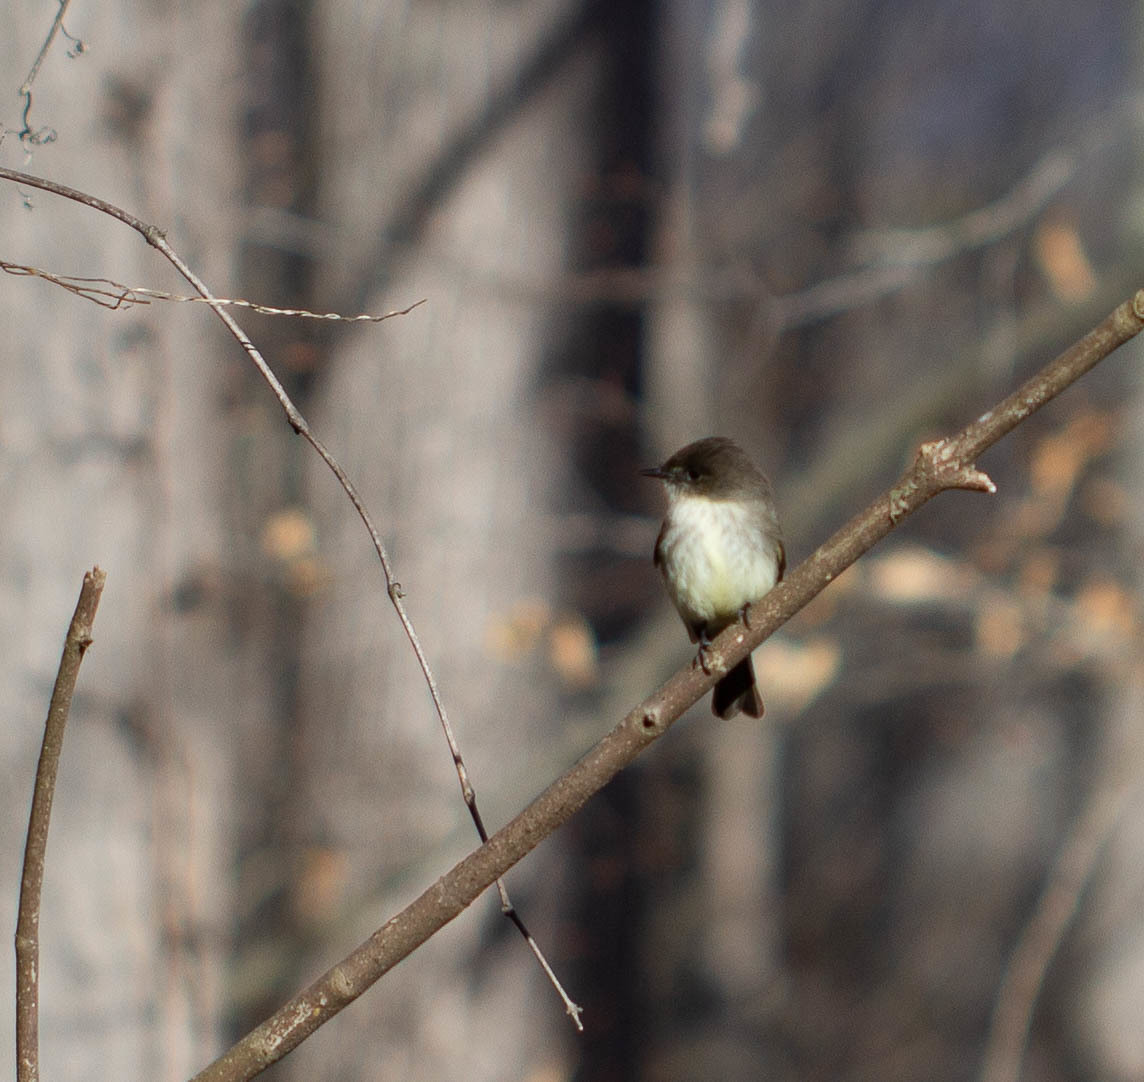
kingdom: Animalia
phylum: Chordata
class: Aves
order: Passeriformes
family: Tyrannidae
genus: Sayornis
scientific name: Sayornis phoebe
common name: Eastern phoebe
